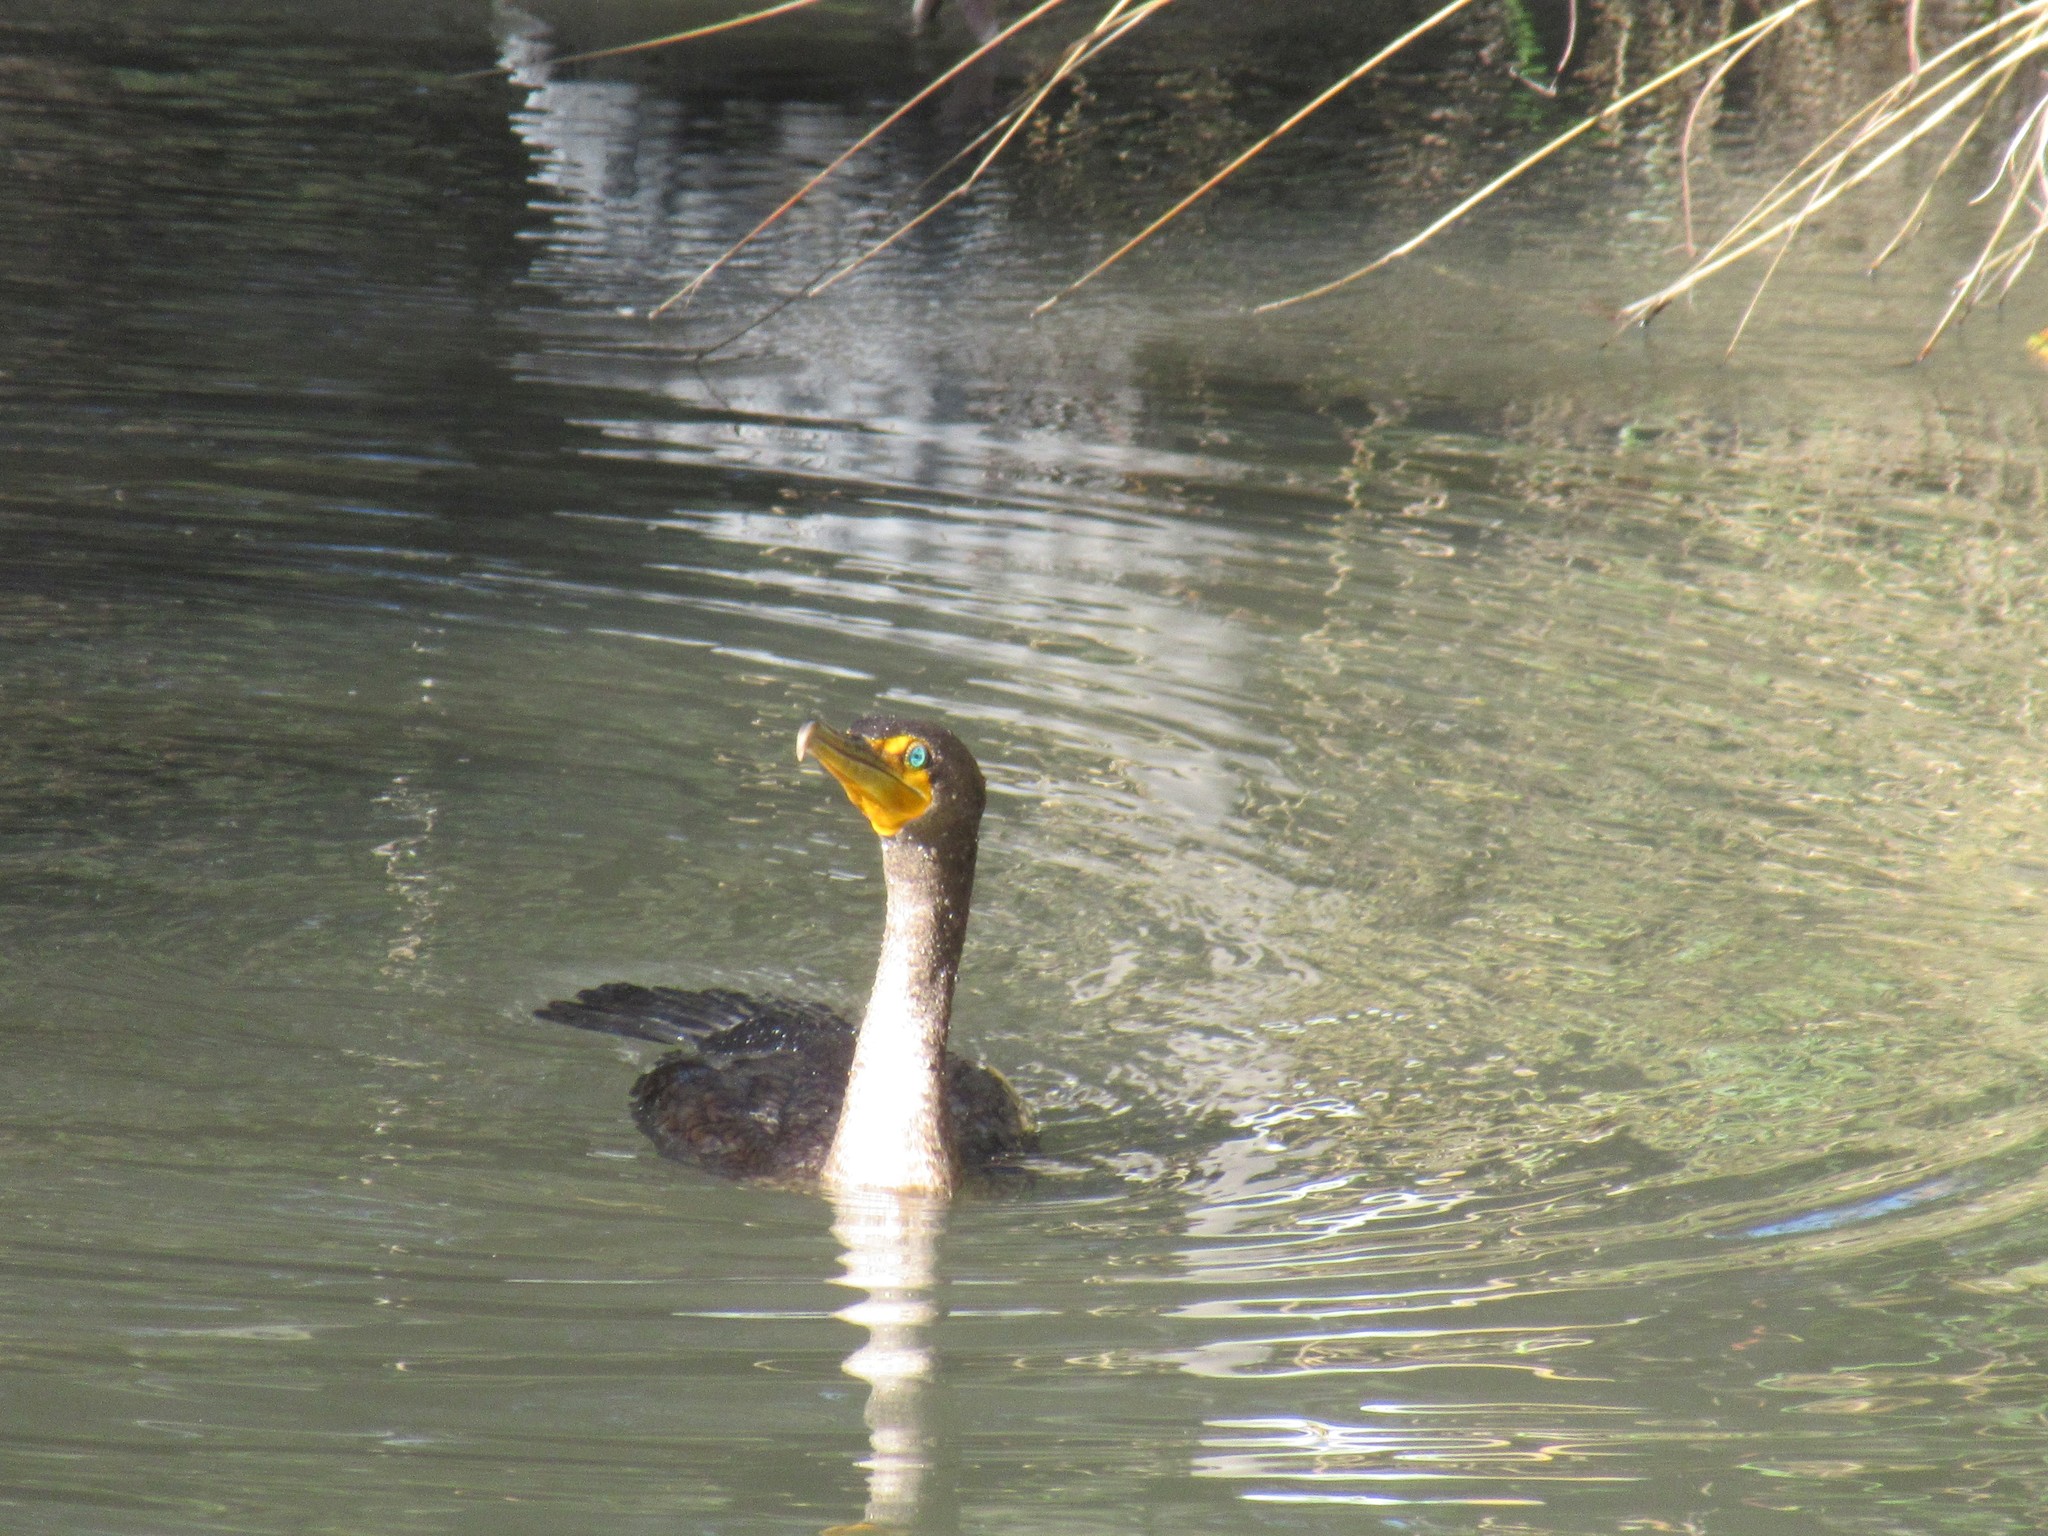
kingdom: Animalia
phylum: Chordata
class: Aves
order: Suliformes
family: Phalacrocoracidae
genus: Phalacrocorax
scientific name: Phalacrocorax auritus
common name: Double-crested cormorant
